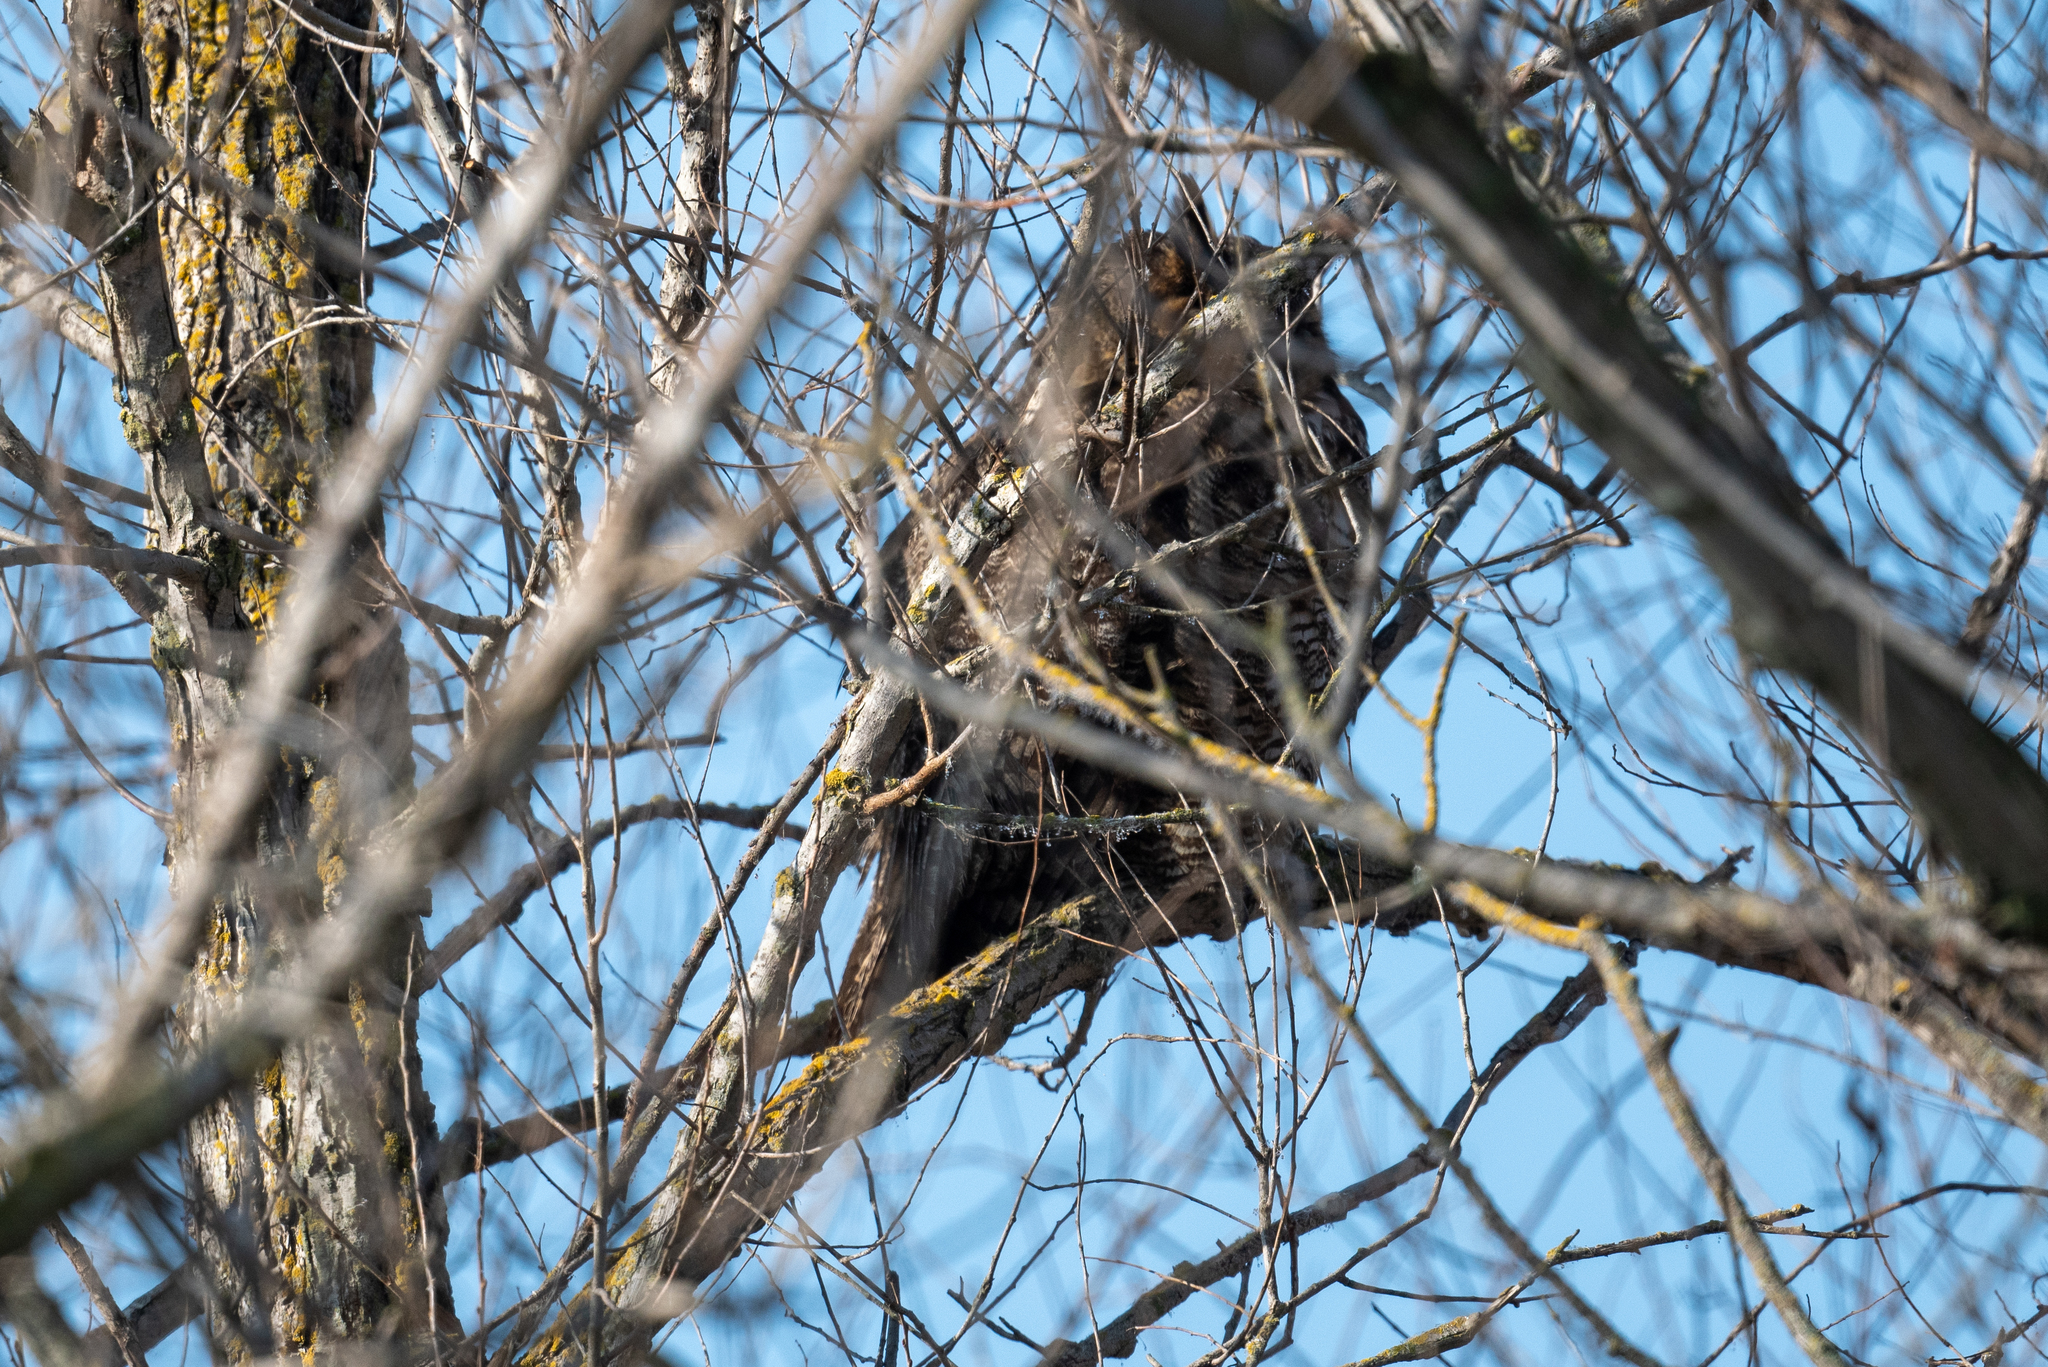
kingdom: Animalia
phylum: Chordata
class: Aves
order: Strigiformes
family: Strigidae
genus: Bubo
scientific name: Bubo virginianus
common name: Great horned owl
